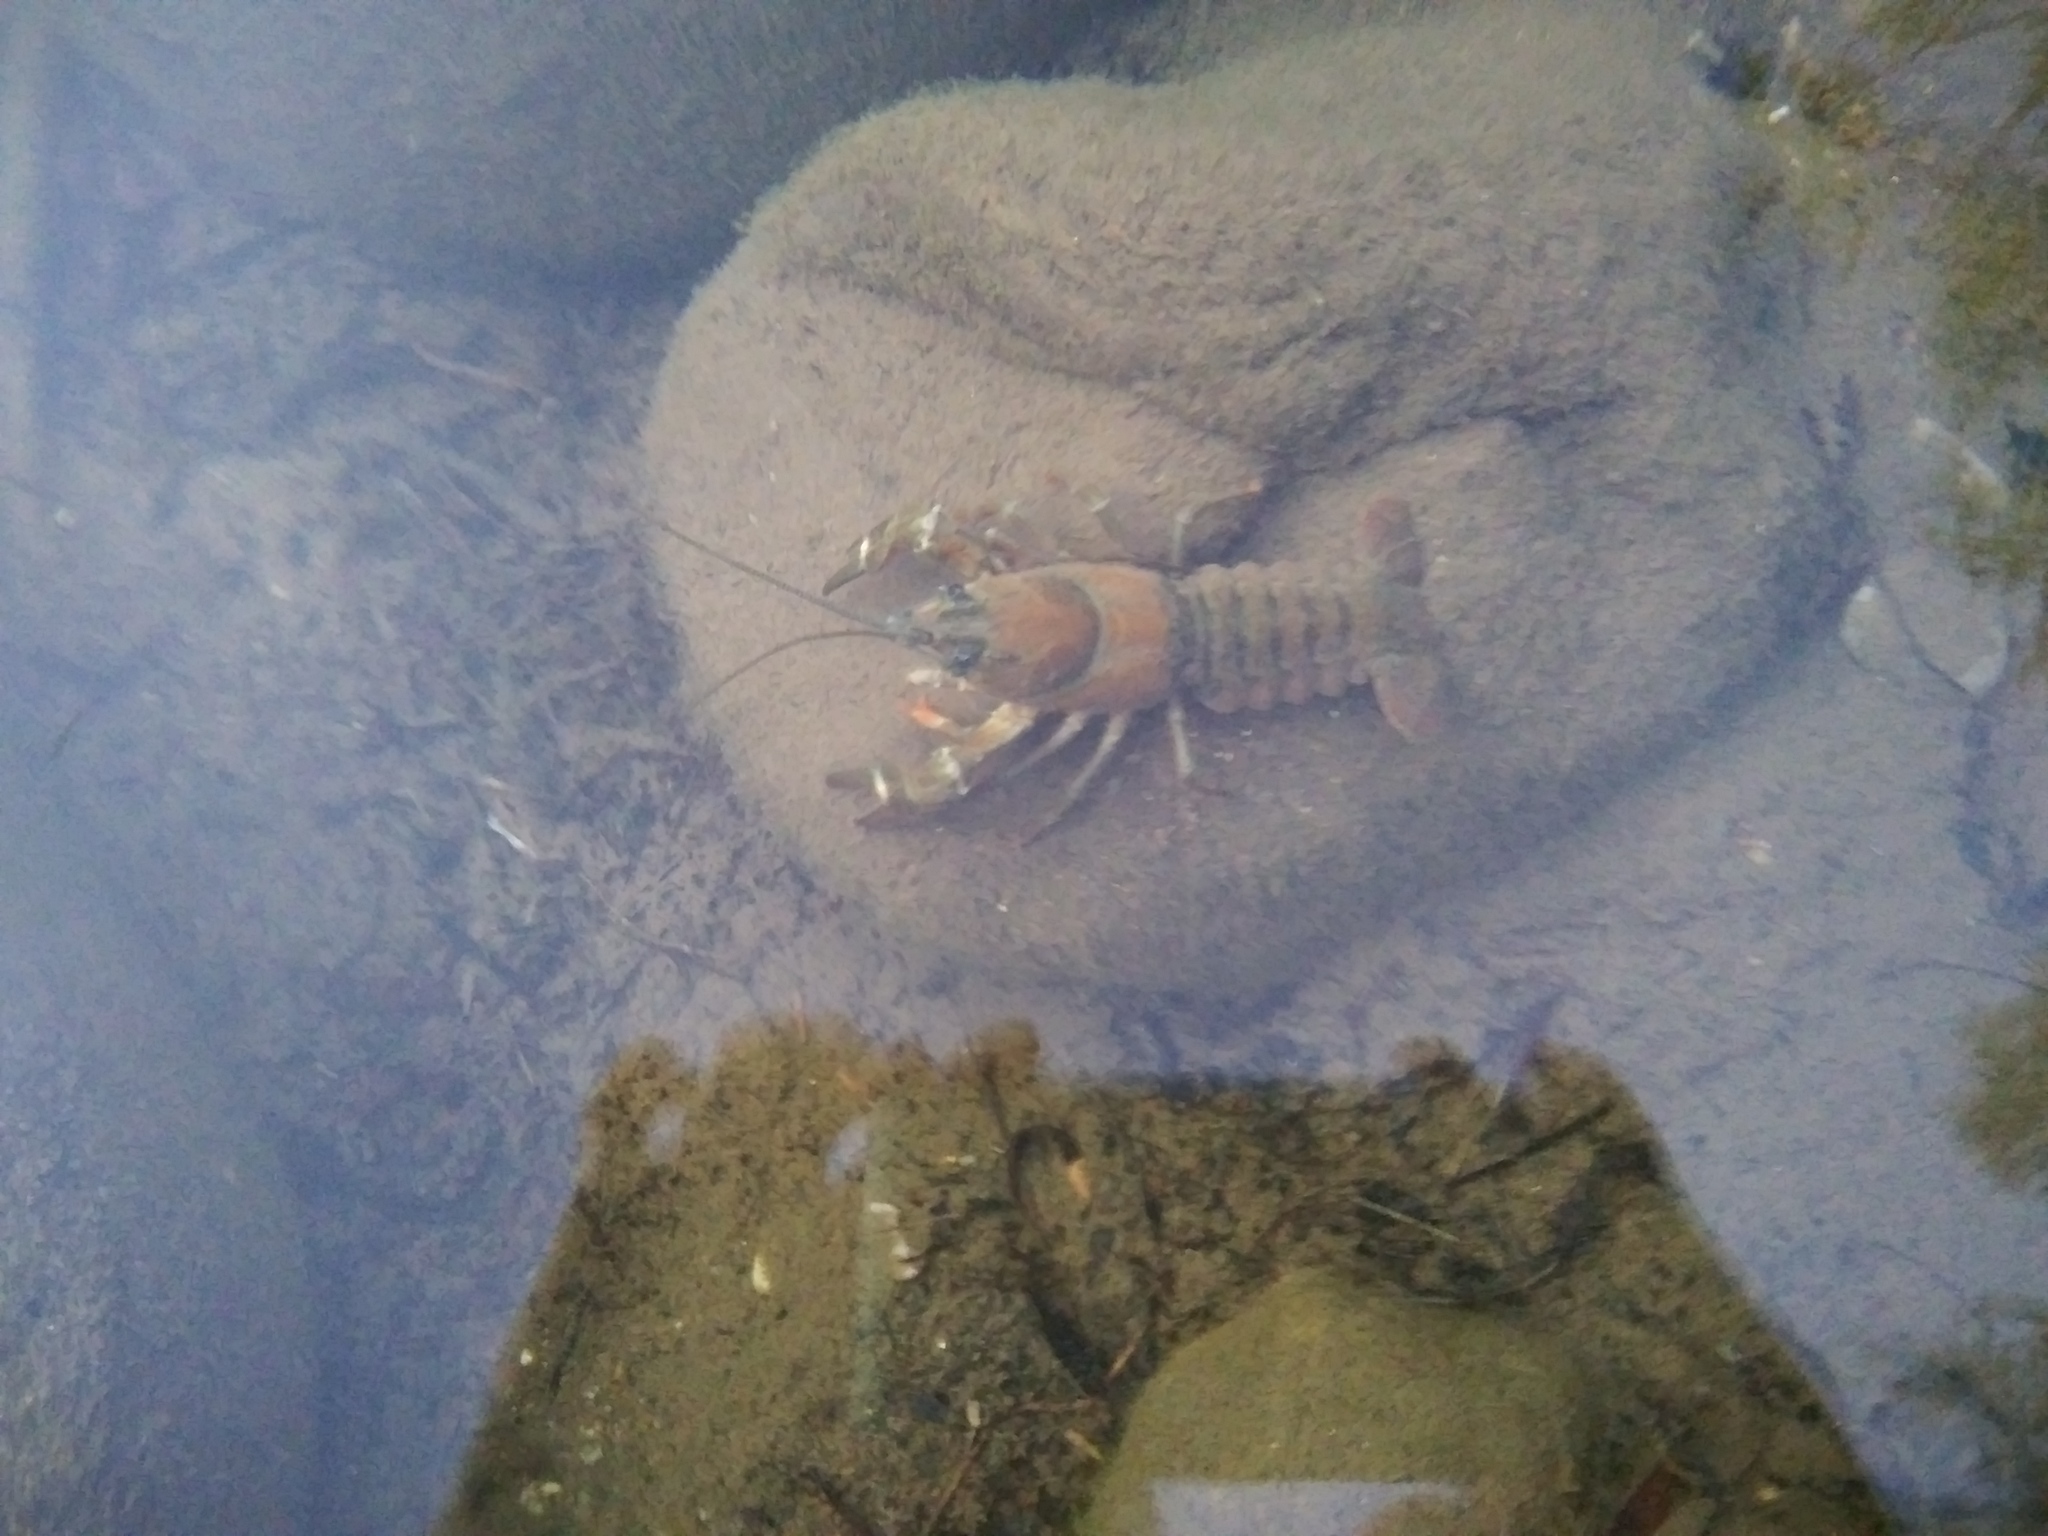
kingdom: Animalia
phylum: Arthropoda
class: Malacostraca
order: Decapoda
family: Astacidae
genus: Pacifastacus
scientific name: Pacifastacus leniusculus
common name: Signal crayfish
